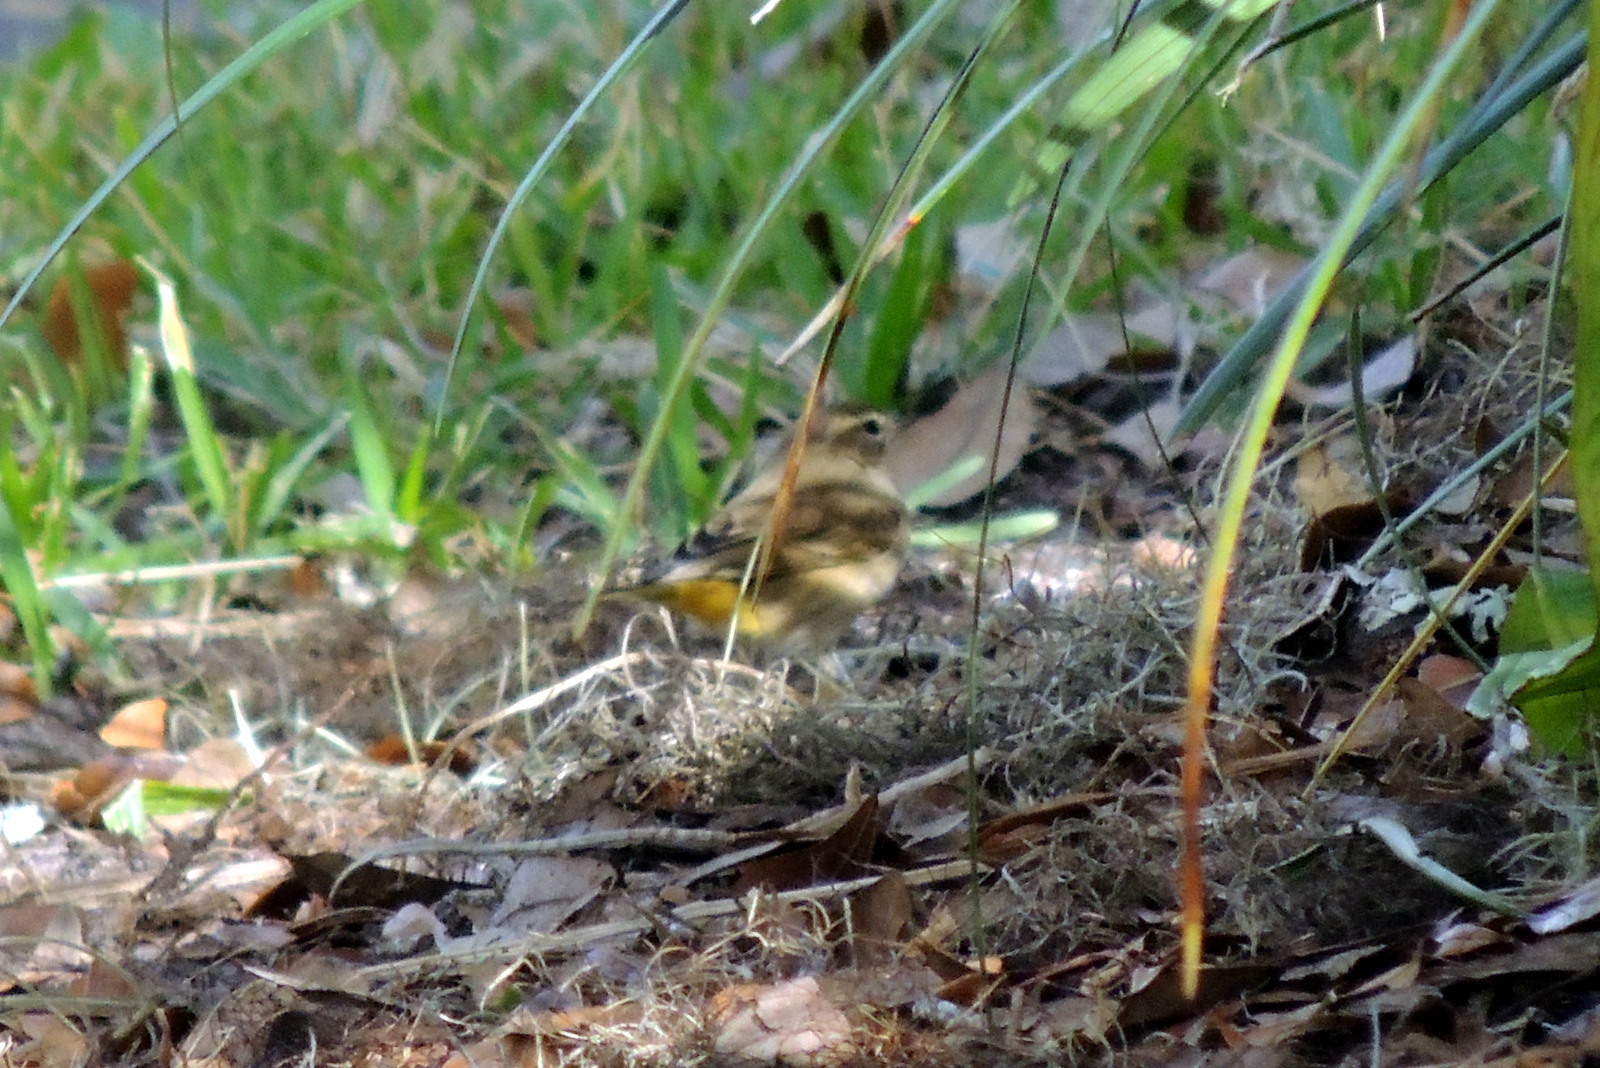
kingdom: Animalia
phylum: Chordata
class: Aves
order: Passeriformes
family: Parulidae
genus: Setophaga
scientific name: Setophaga palmarum
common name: Palm warbler
